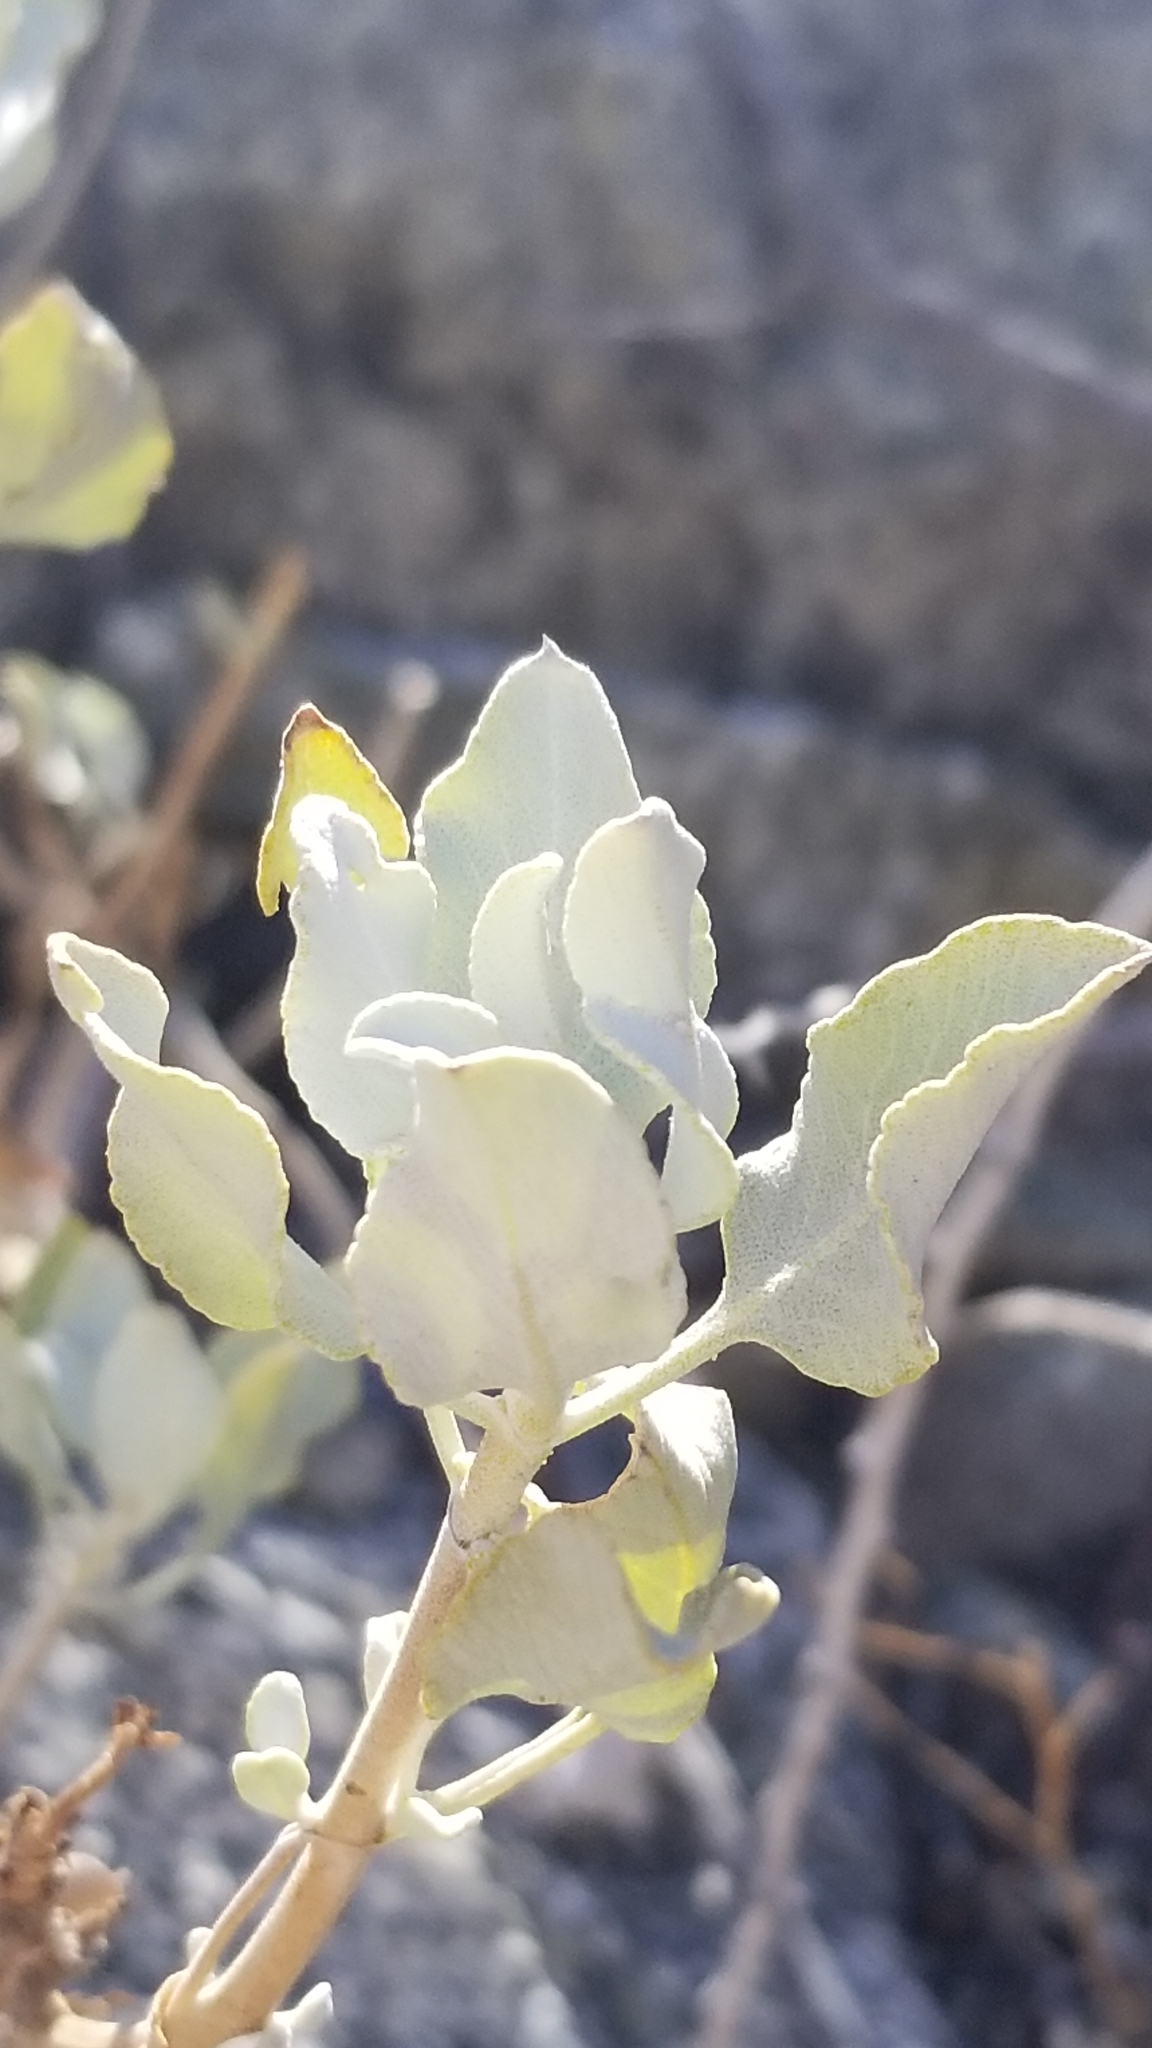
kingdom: Plantae
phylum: Tracheophyta
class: Magnoliopsida
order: Lamiales
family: Lamiaceae
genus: Salvia
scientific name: Salvia vaseyi
